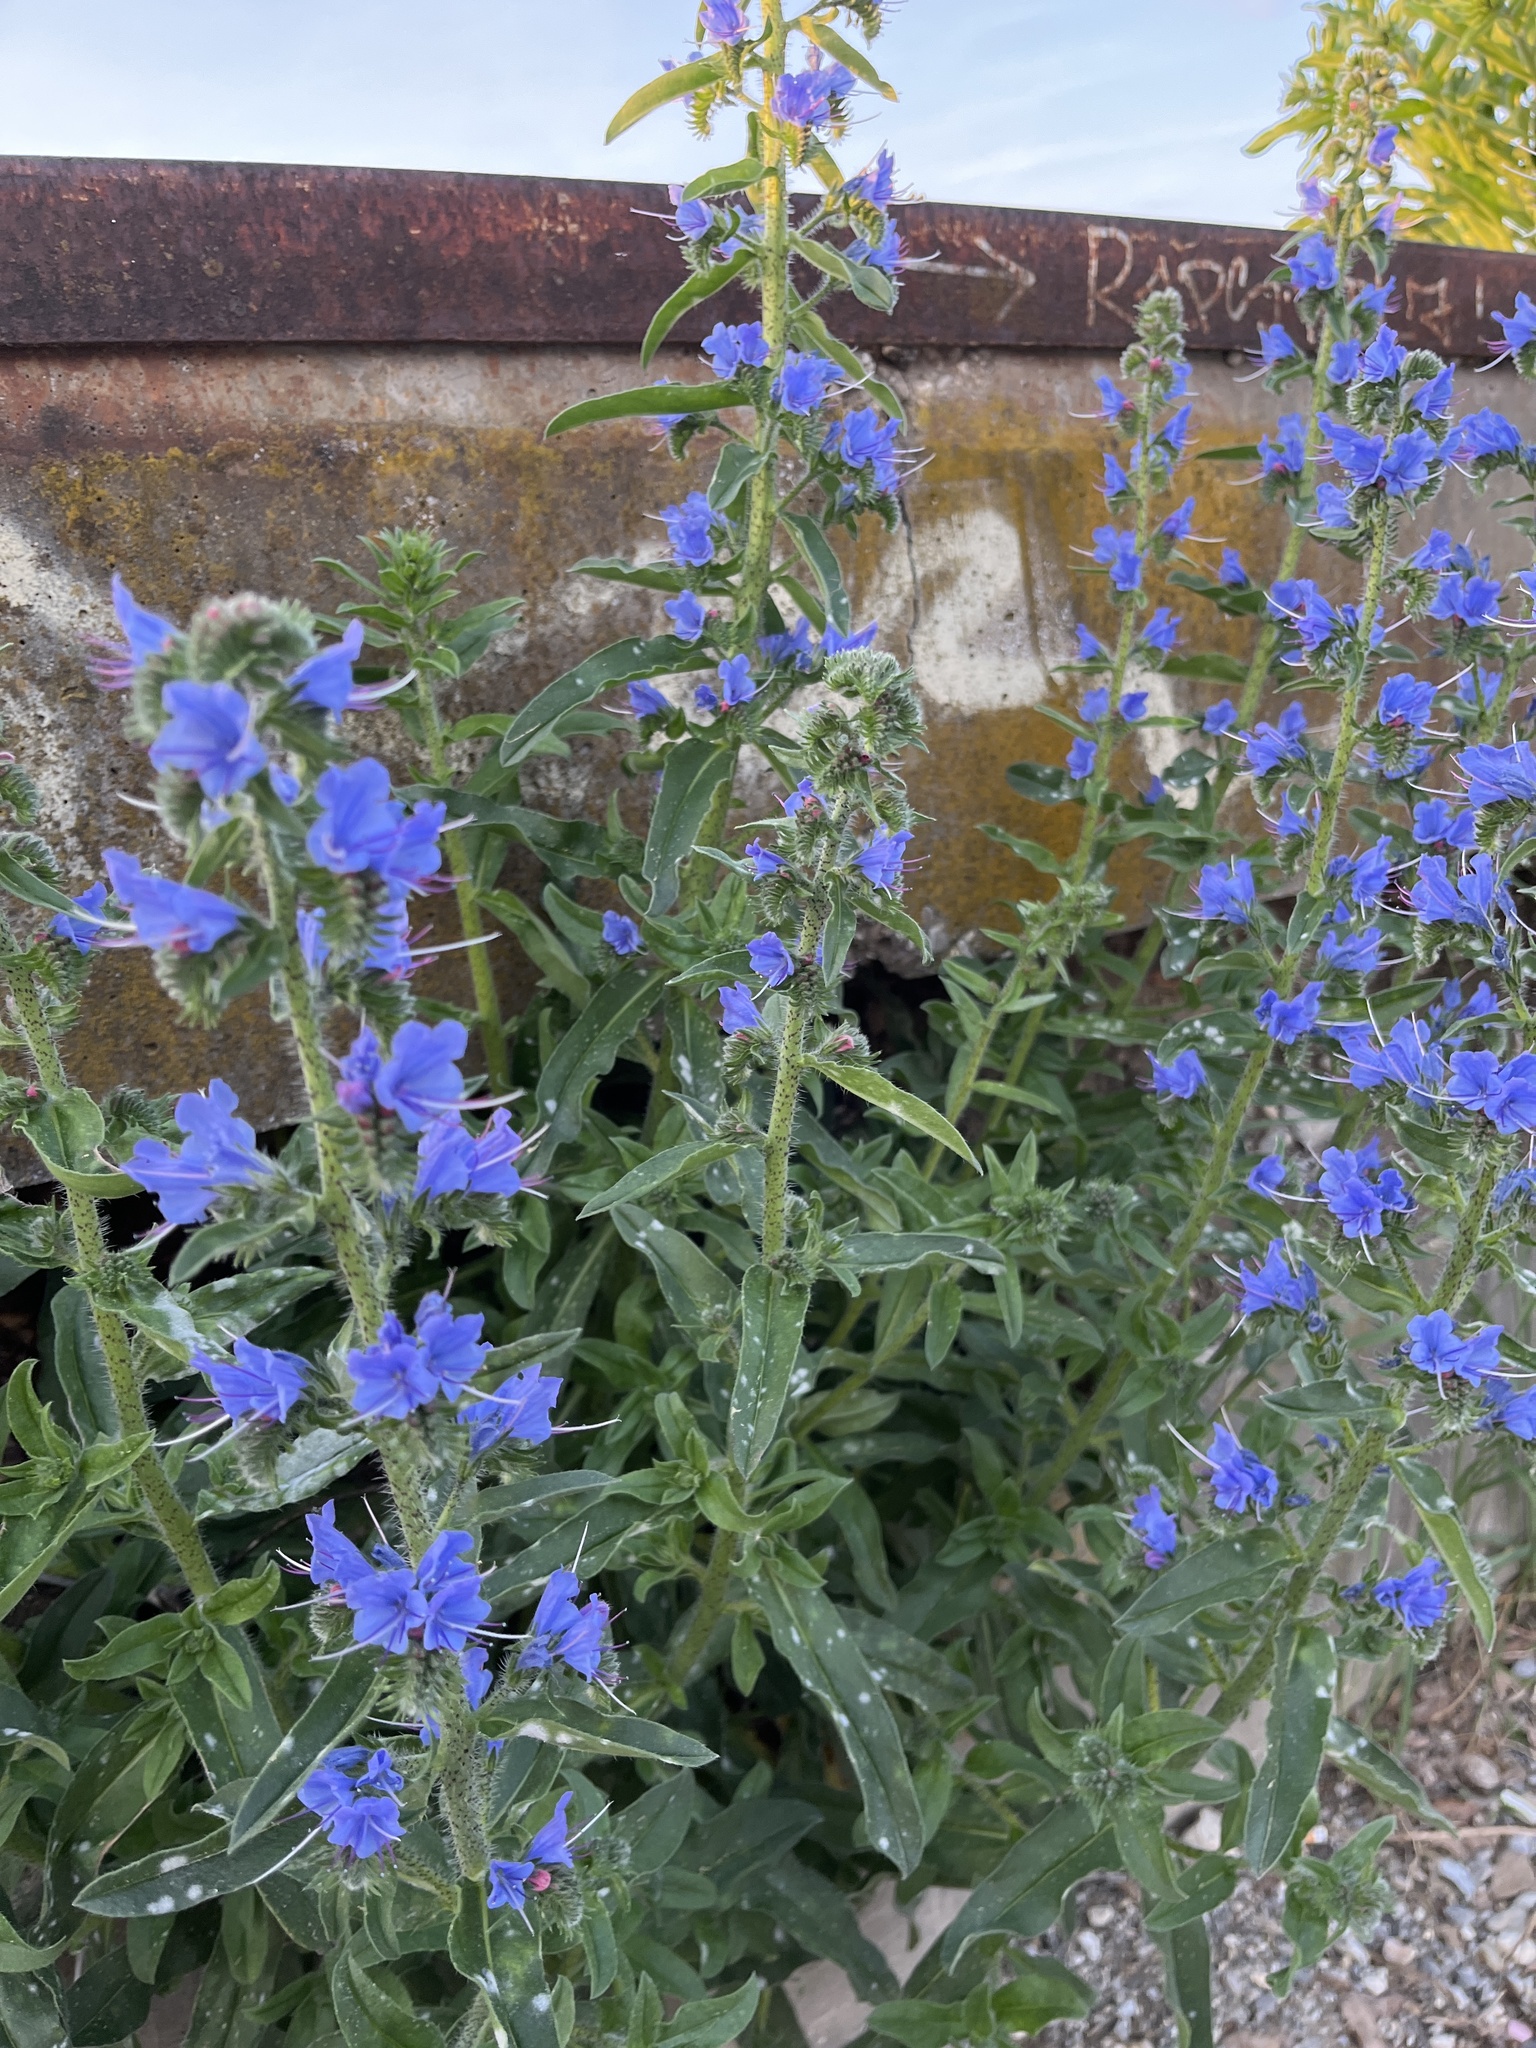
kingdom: Plantae
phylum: Tracheophyta
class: Magnoliopsida
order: Boraginales
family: Boraginaceae
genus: Echium
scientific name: Echium vulgare
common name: Common viper's bugloss
